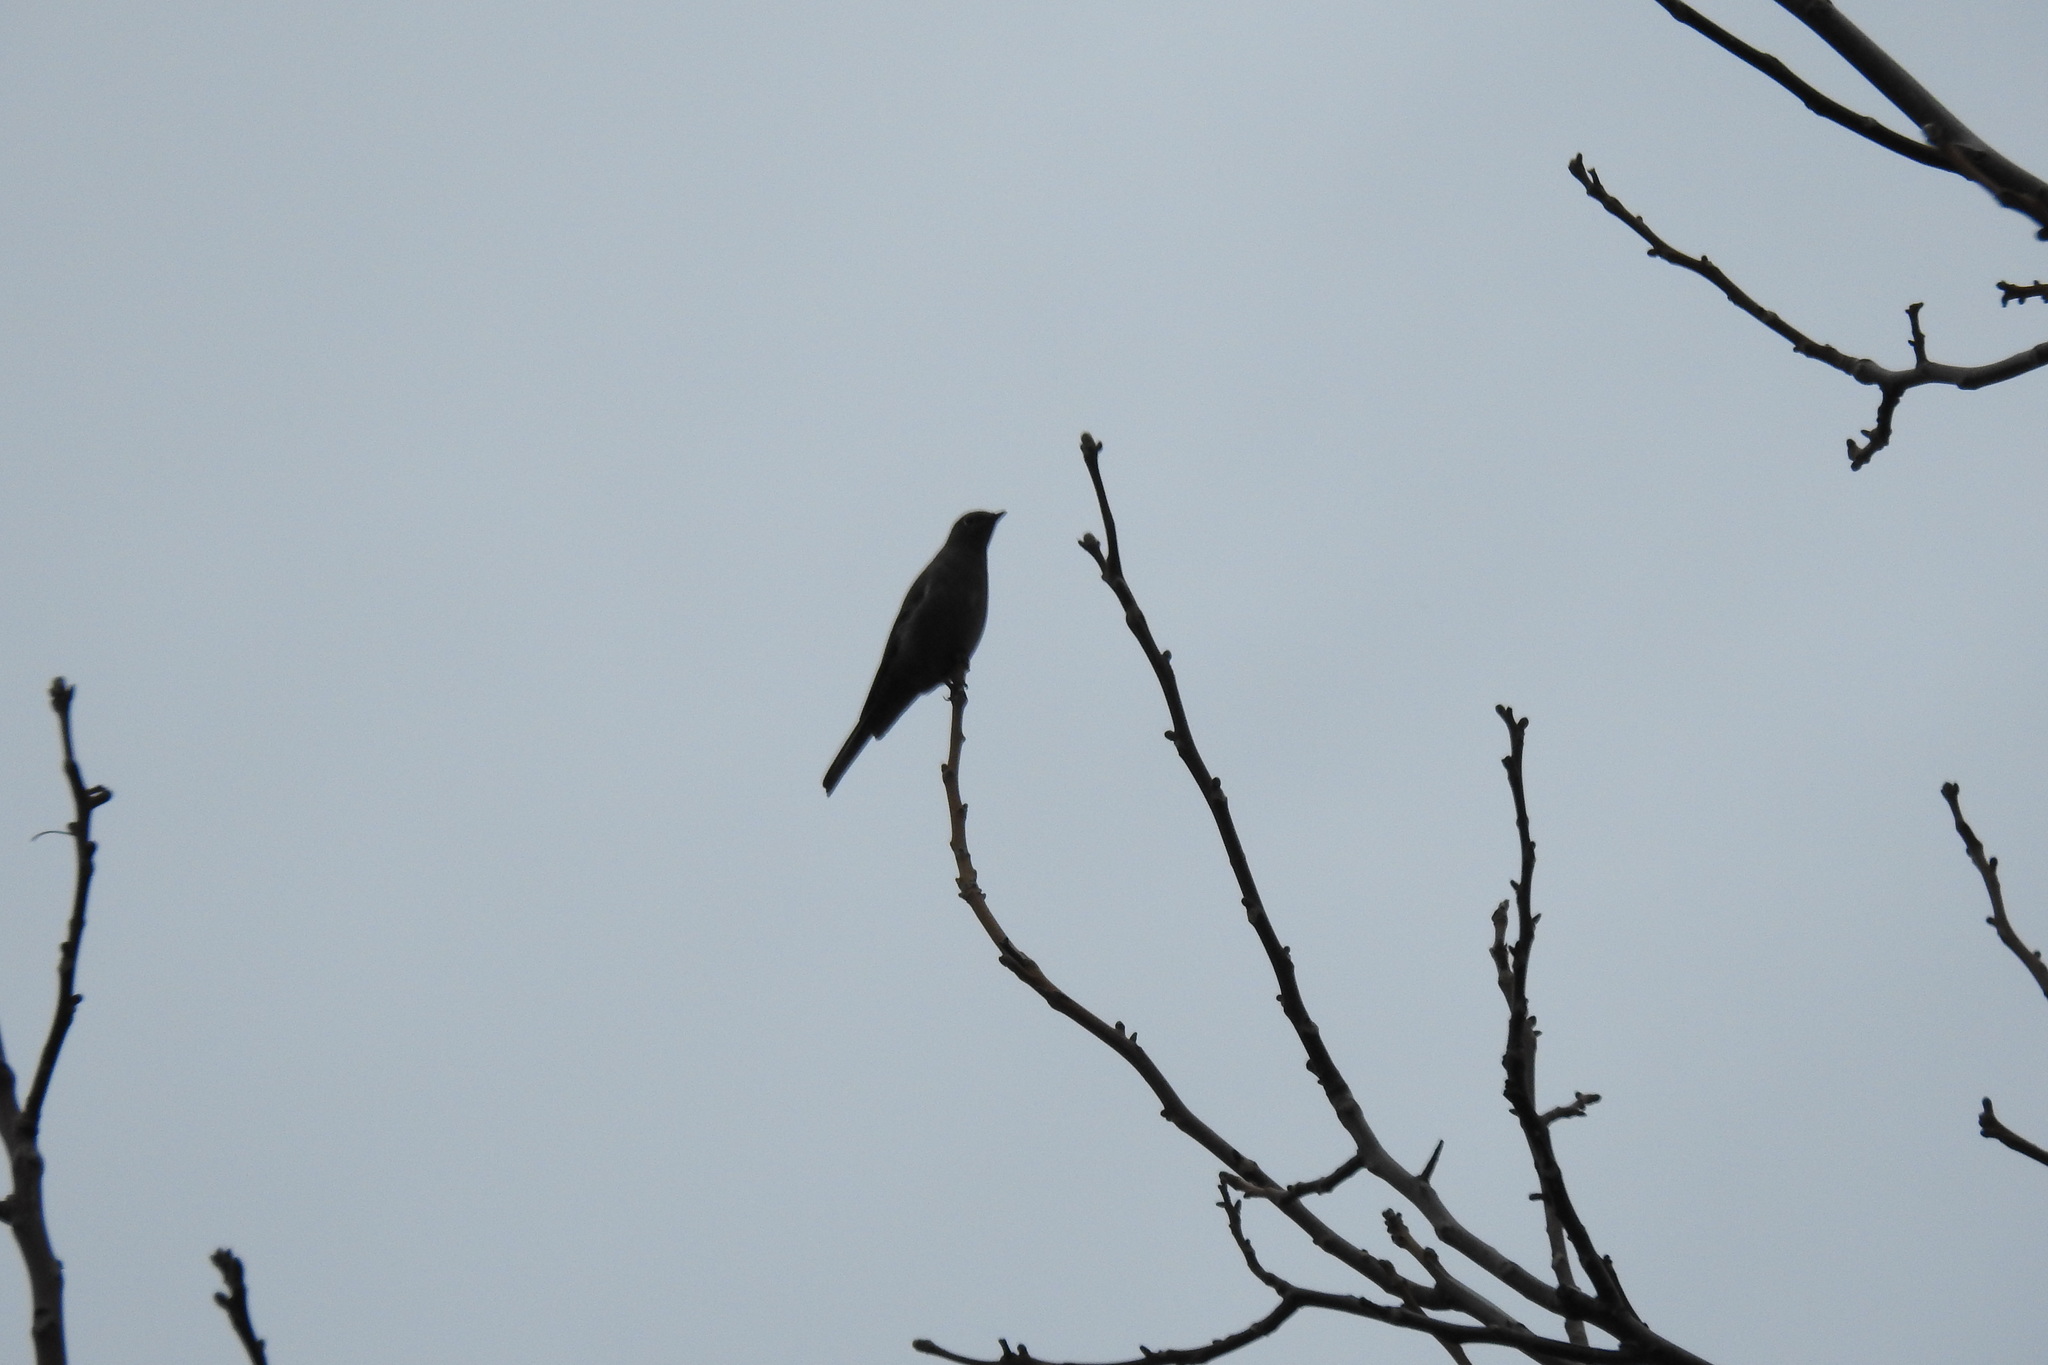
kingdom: Animalia
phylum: Chordata
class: Aves
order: Passeriformes
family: Turdidae
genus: Myadestes
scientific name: Myadestes townsendi
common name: Townsend's solitaire
